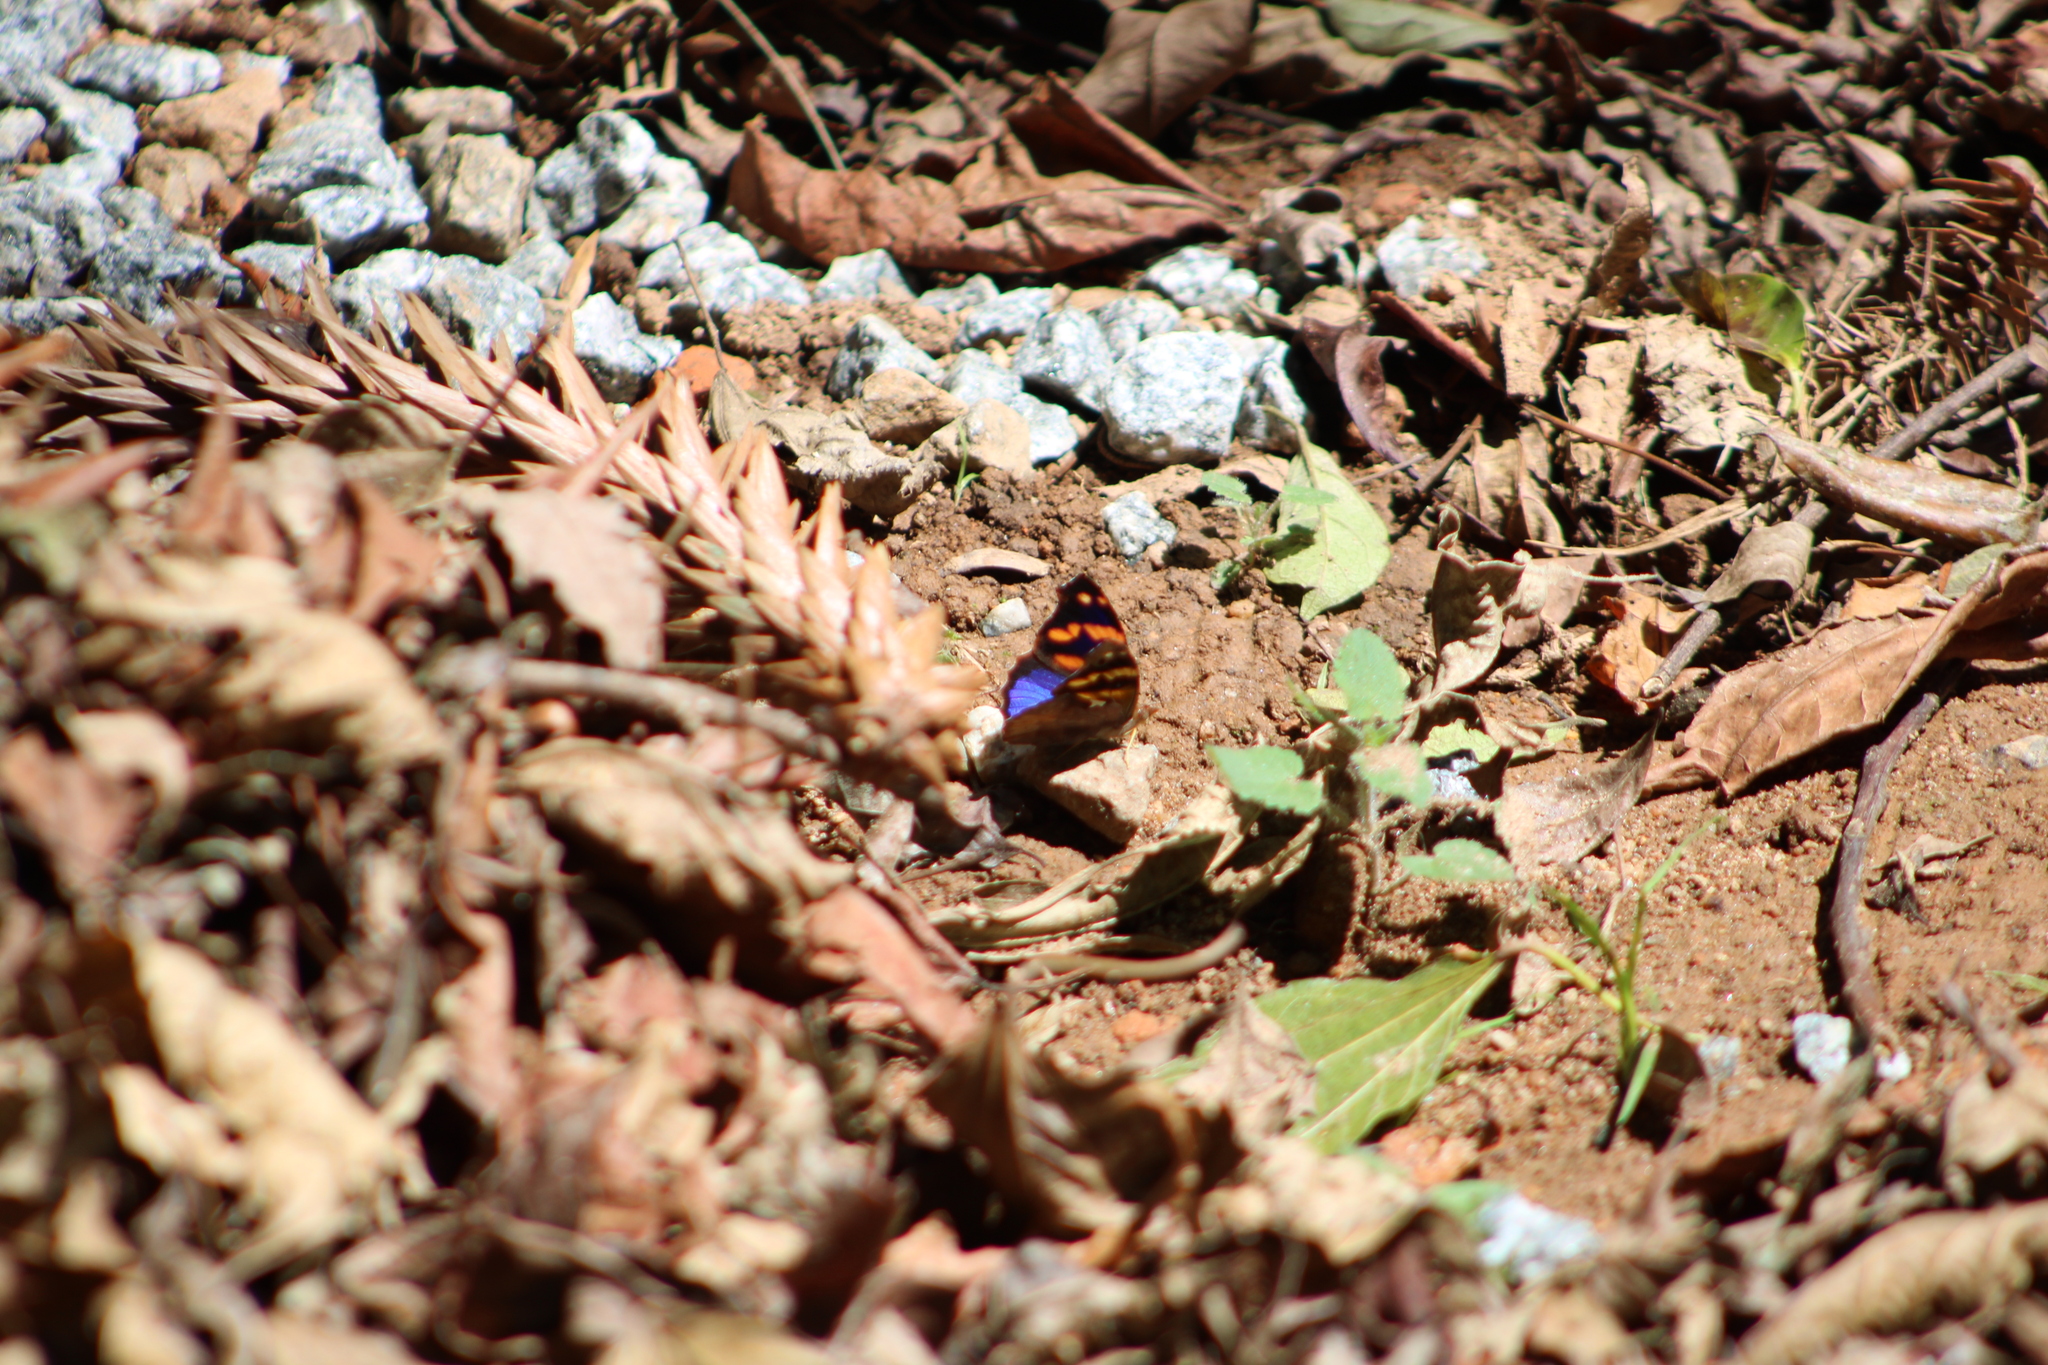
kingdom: Animalia
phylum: Arthropoda
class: Insecta
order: Lepidoptera
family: Nymphalidae
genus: Epiphile
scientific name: Epiphile orea
